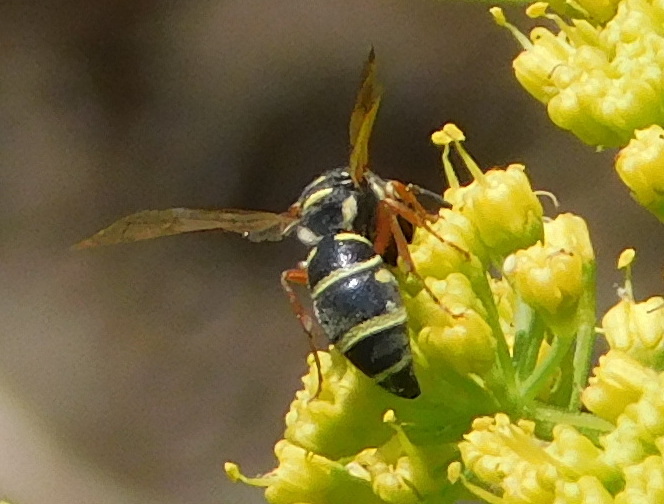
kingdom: Animalia
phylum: Arthropoda
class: Insecta
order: Hymenoptera
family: Eumenidae
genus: Parancistrocerus
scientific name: Parancistrocerus austrinus
